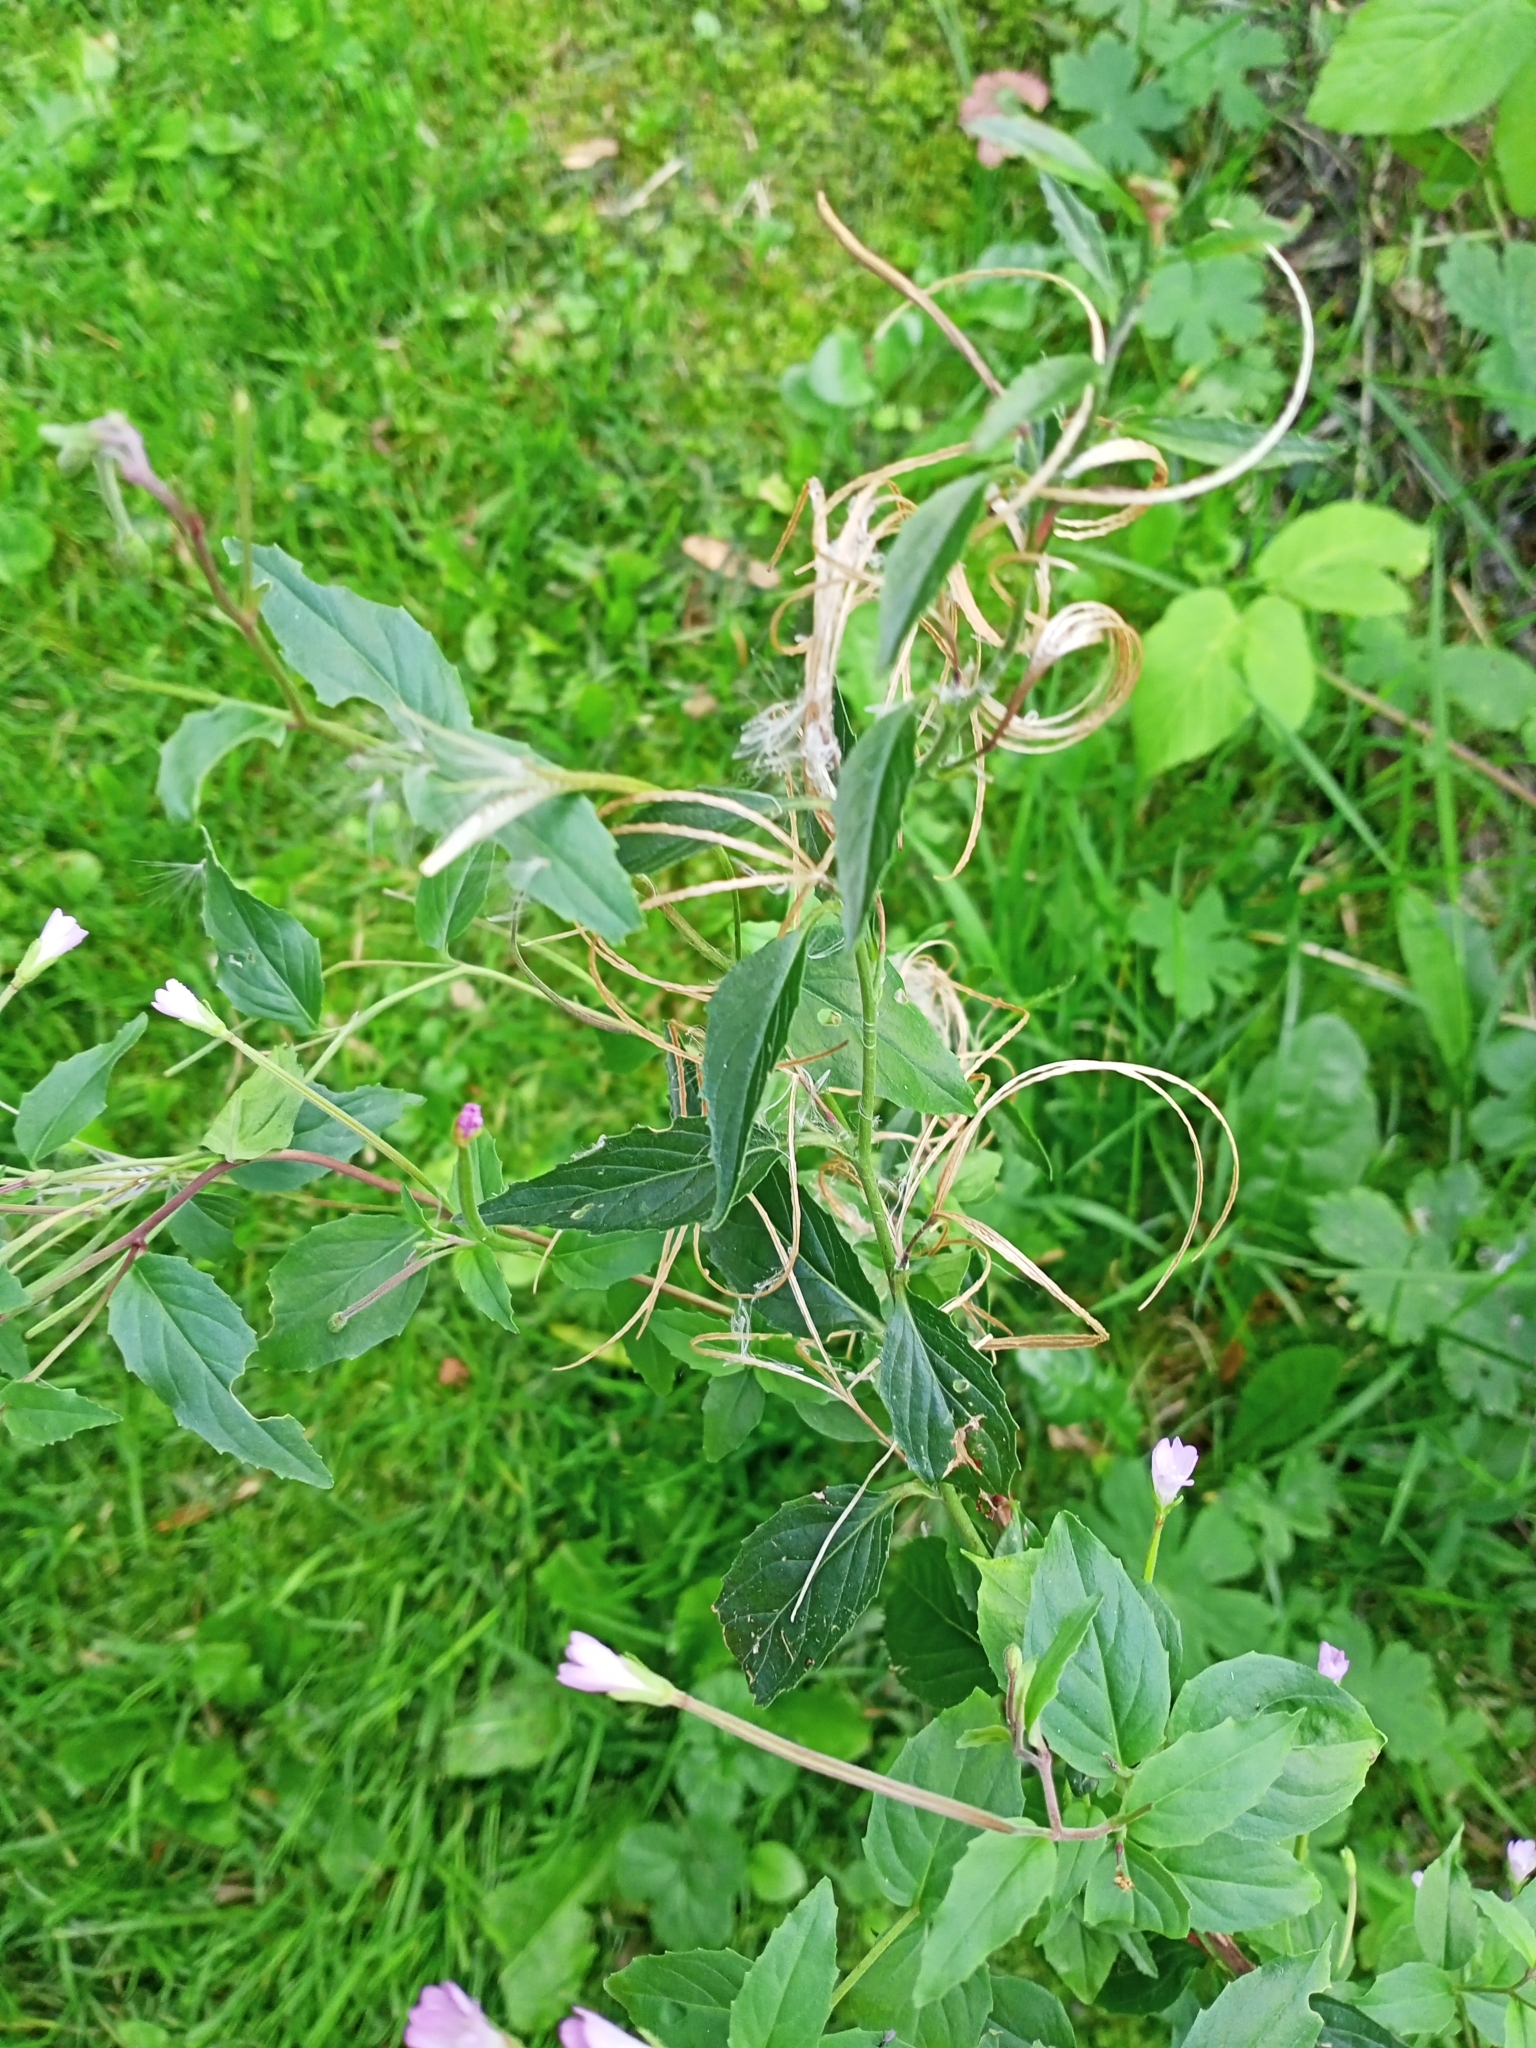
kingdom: Plantae
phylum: Tracheophyta
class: Magnoliopsida
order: Myrtales
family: Onagraceae
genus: Epilobium
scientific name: Epilobium montanum
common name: Broad-leaved willowherb
